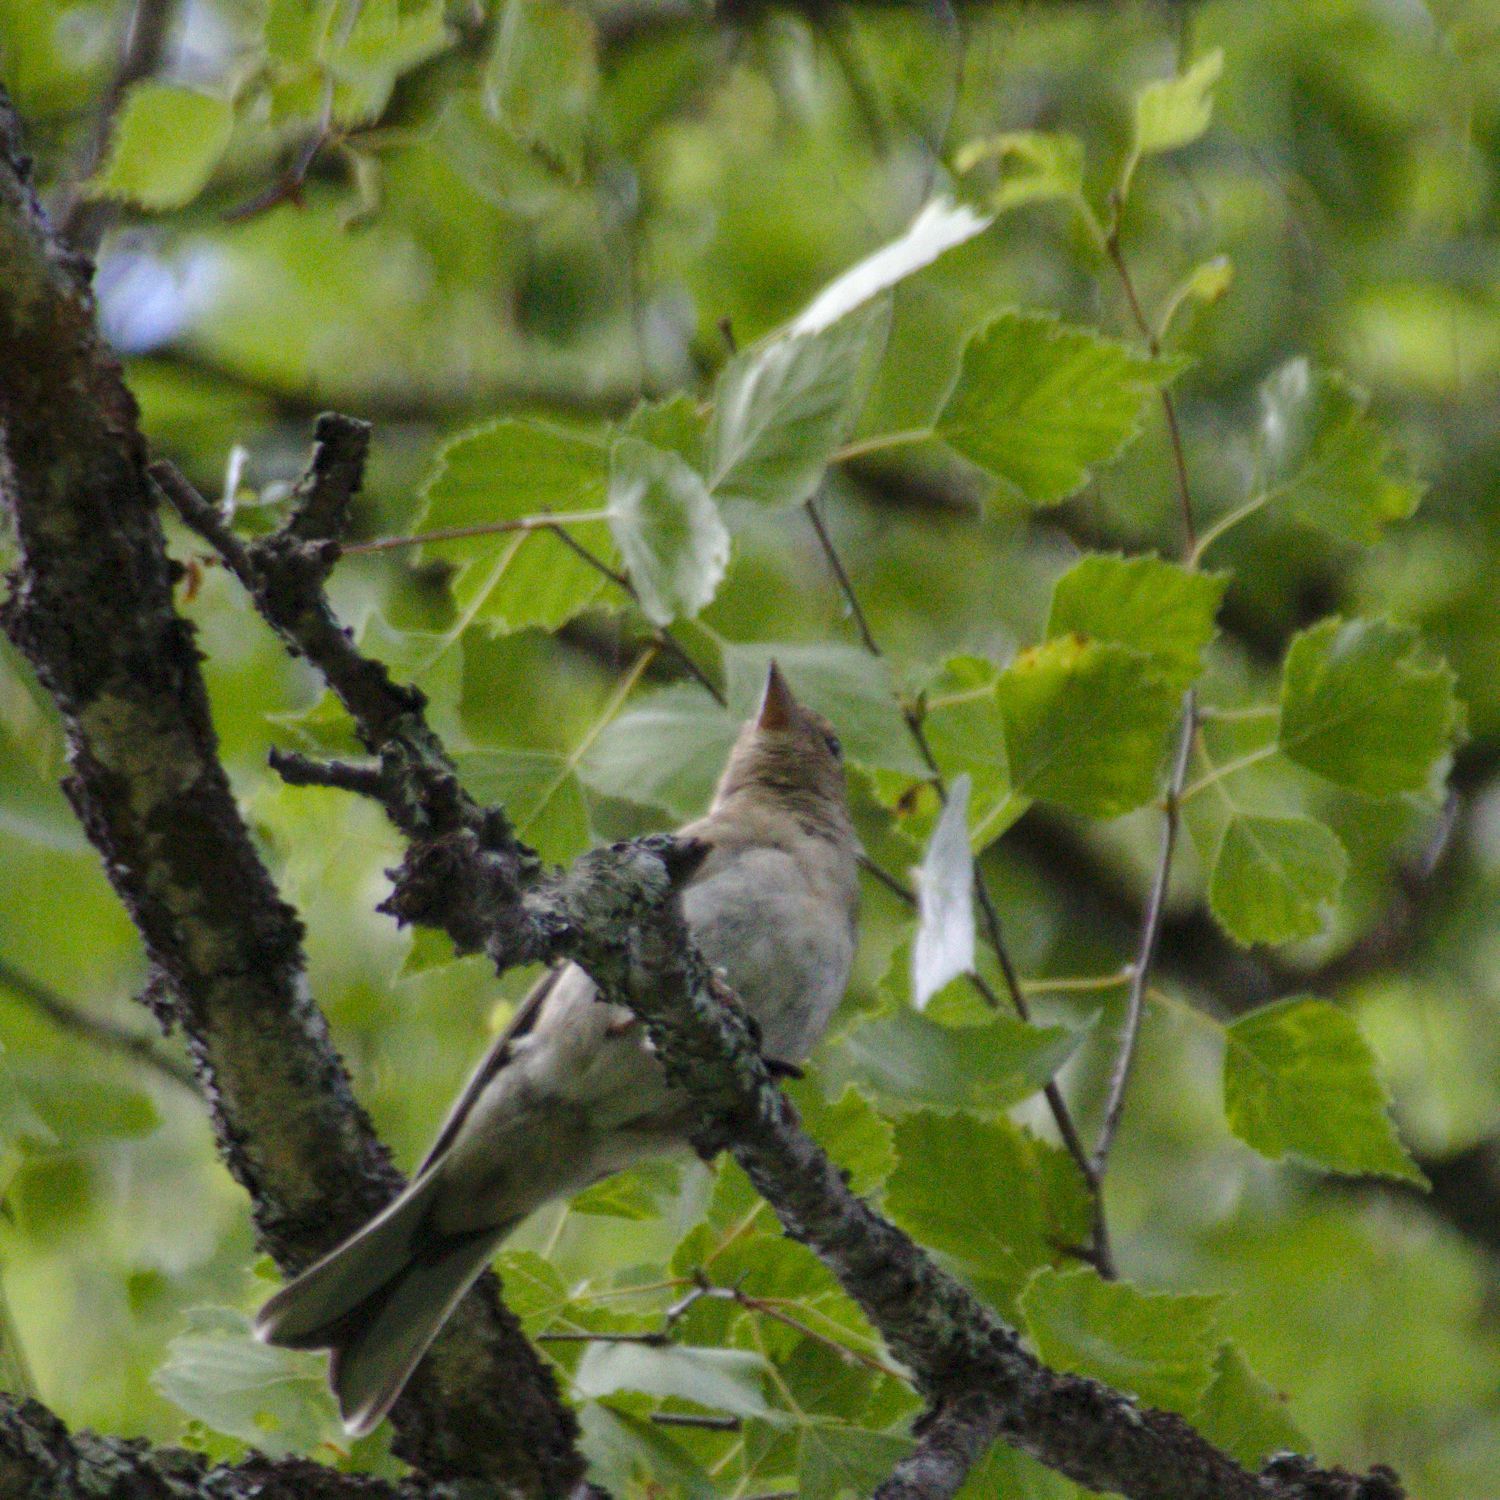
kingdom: Animalia
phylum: Chordata
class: Aves
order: Passeriformes
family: Fringillidae
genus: Fringilla
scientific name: Fringilla coelebs
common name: Common chaffinch
